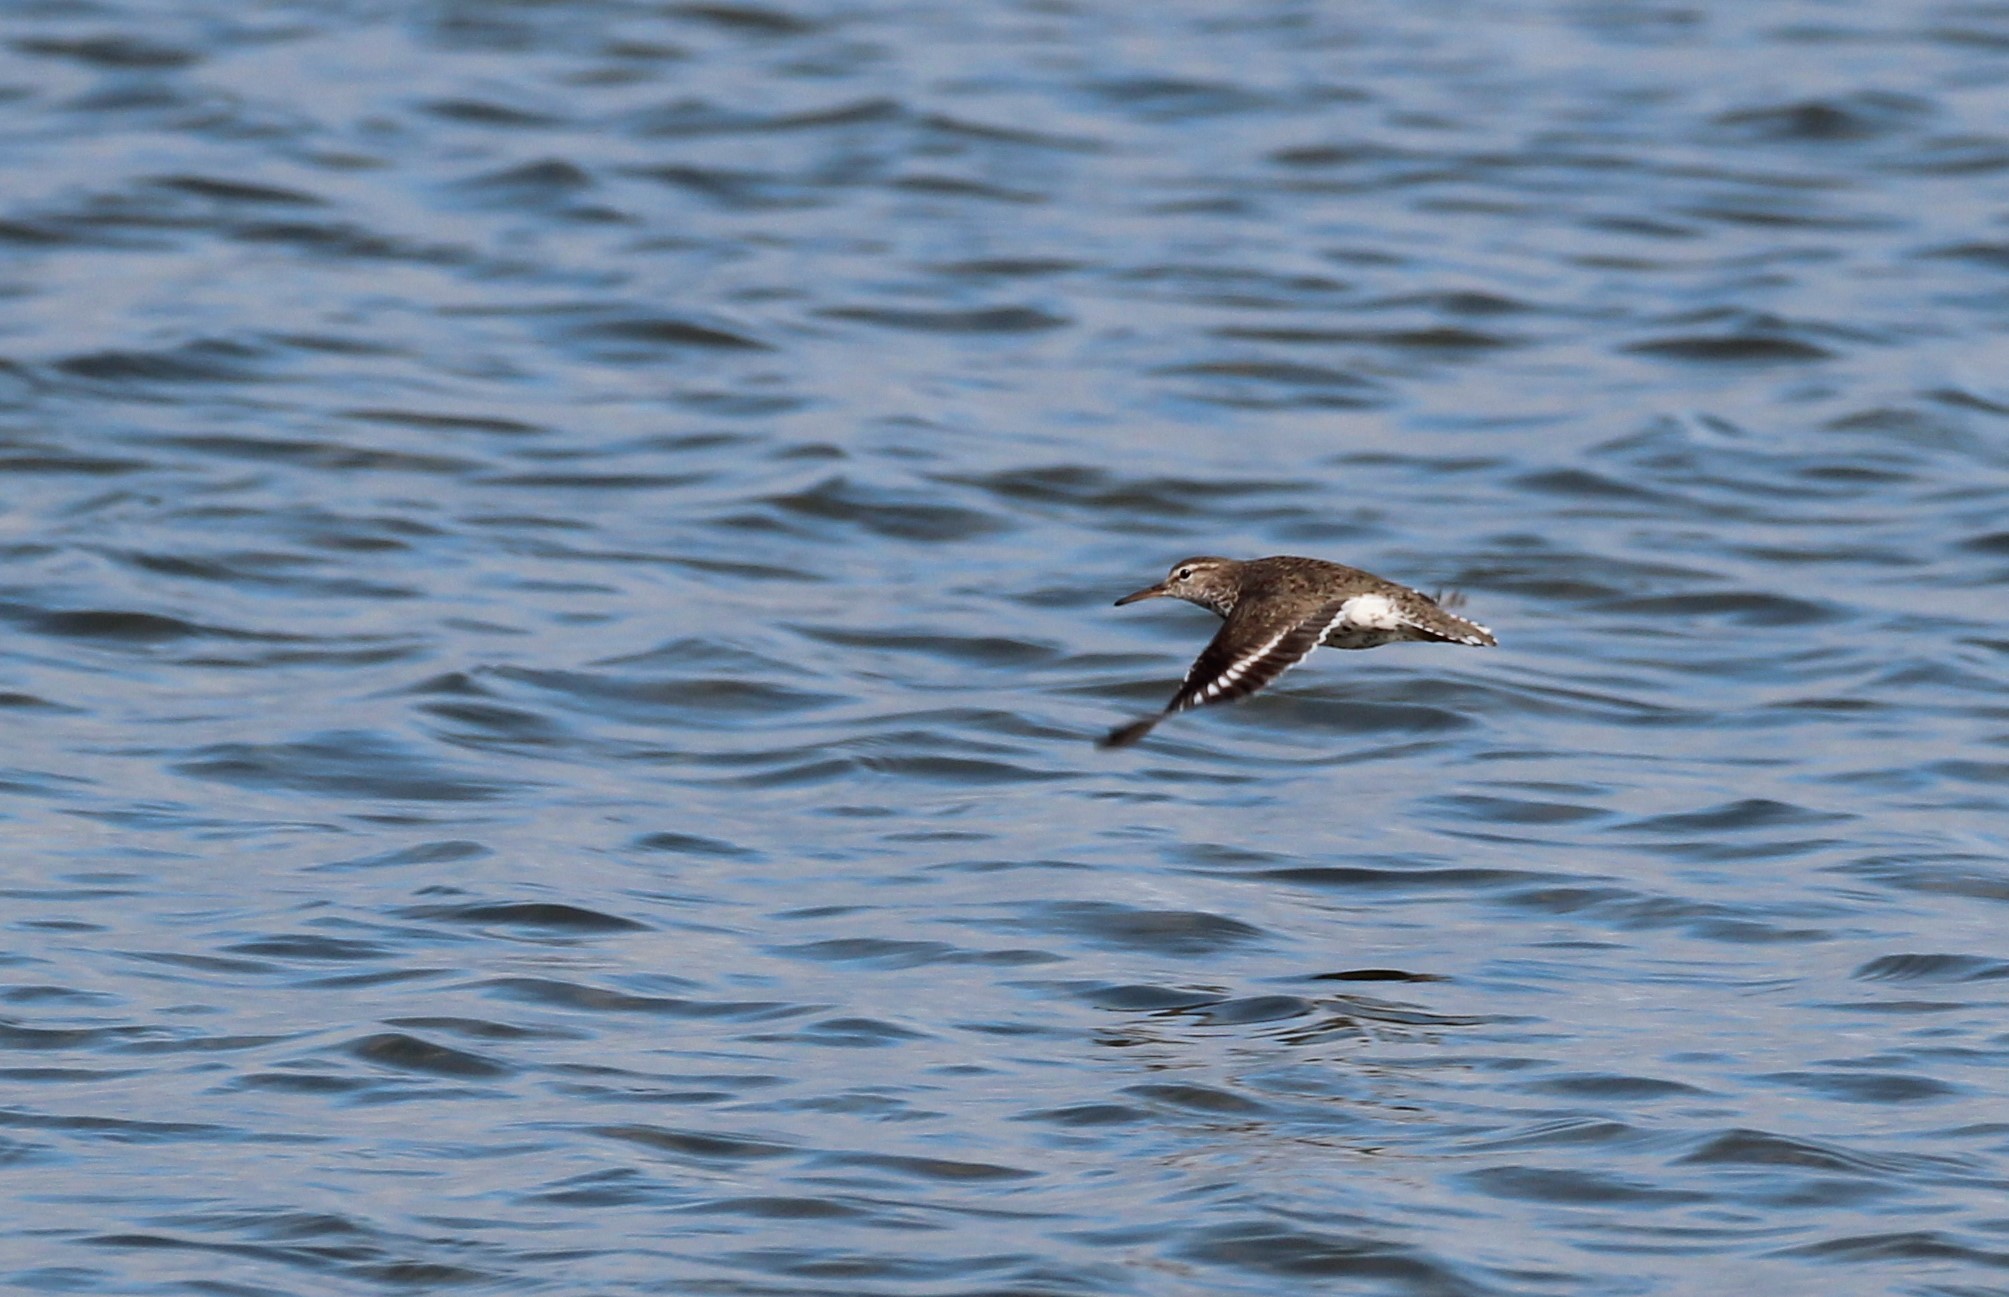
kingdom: Animalia
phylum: Chordata
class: Aves
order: Charadriiformes
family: Scolopacidae
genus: Actitis
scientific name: Actitis macularius
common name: Spotted sandpiper
